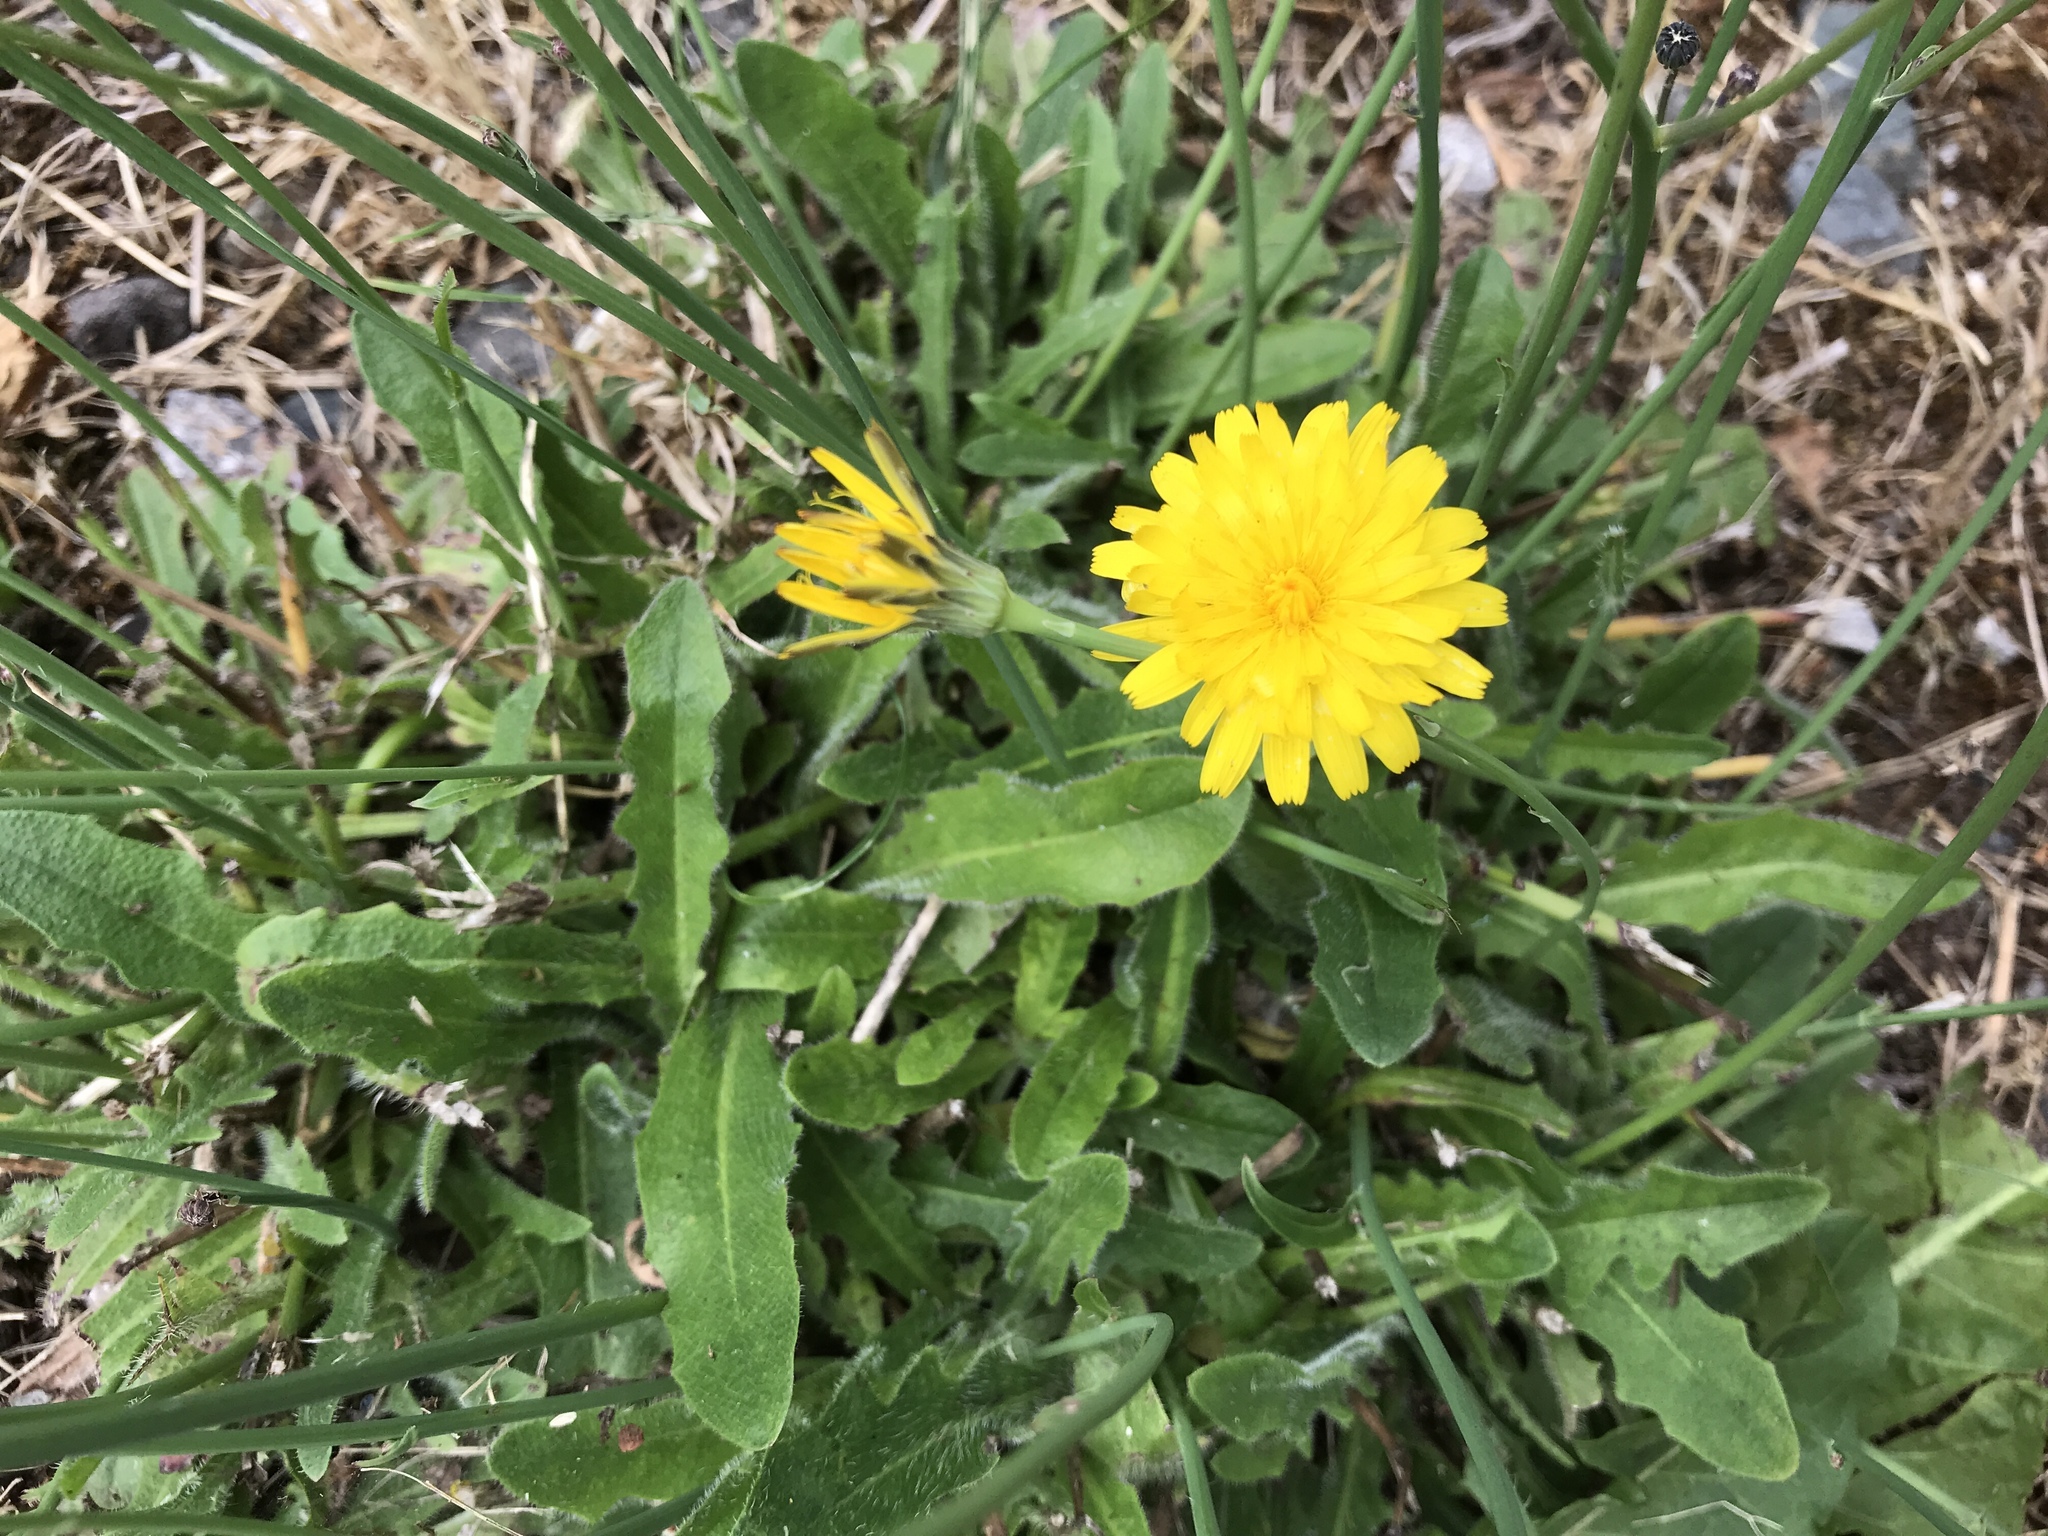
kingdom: Plantae
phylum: Tracheophyta
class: Magnoliopsida
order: Asterales
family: Asteraceae
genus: Hypochaeris
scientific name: Hypochaeris radicata
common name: Flatweed
